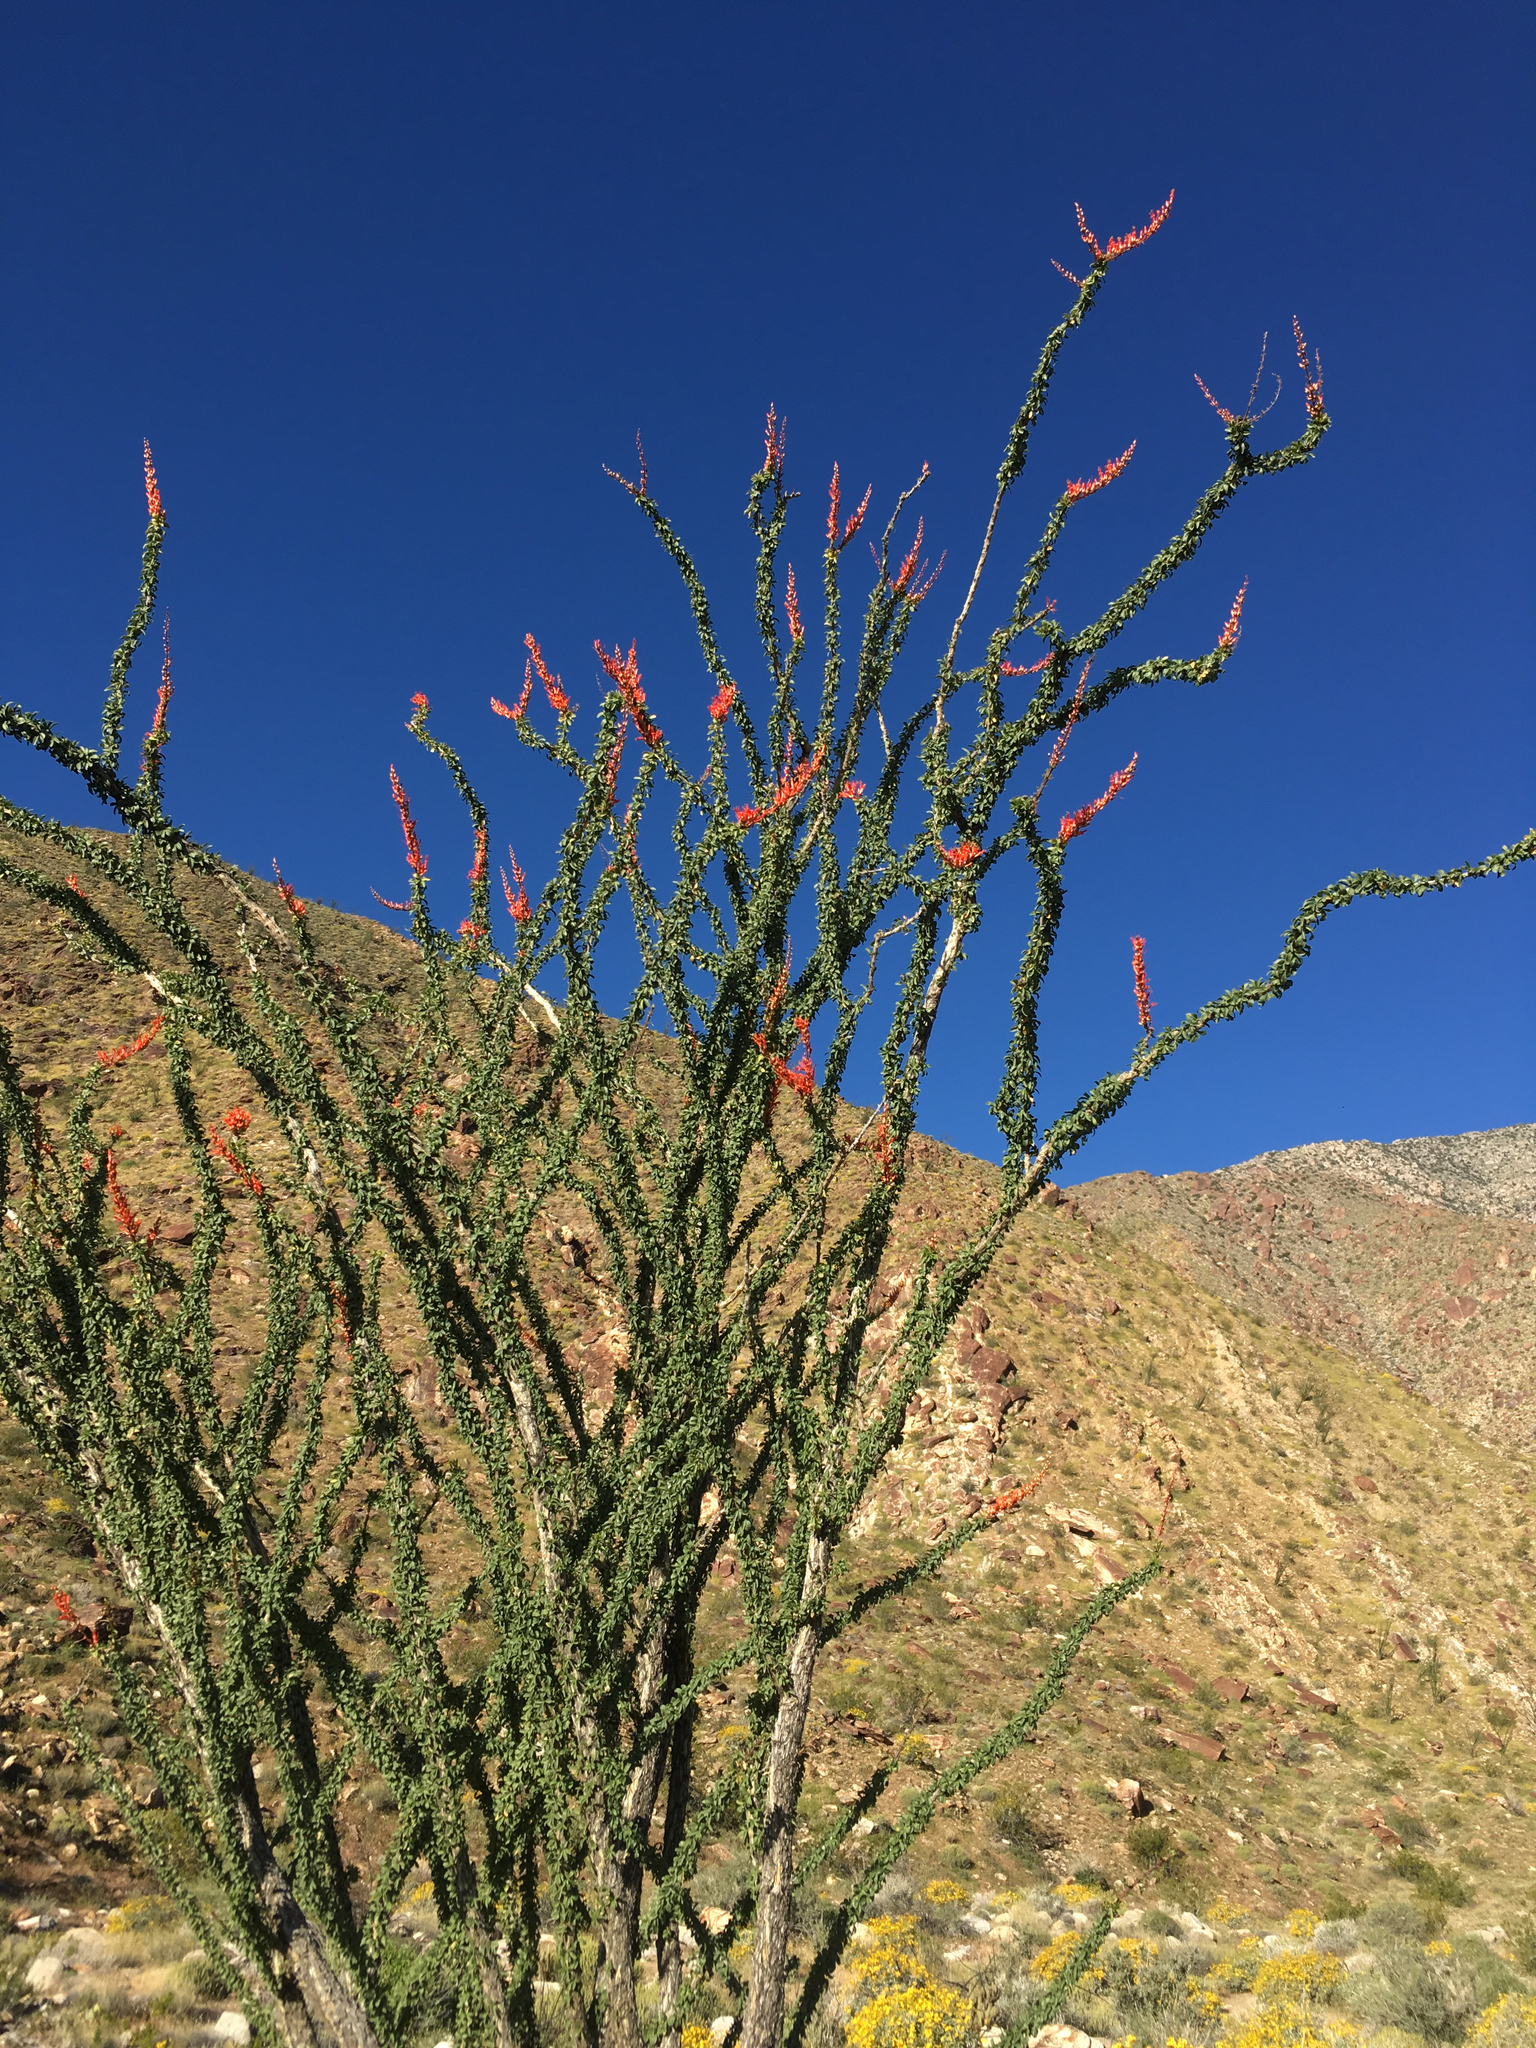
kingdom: Plantae
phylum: Tracheophyta
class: Magnoliopsida
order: Ericales
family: Fouquieriaceae
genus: Fouquieria
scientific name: Fouquieria splendens
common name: Vine-cactus
